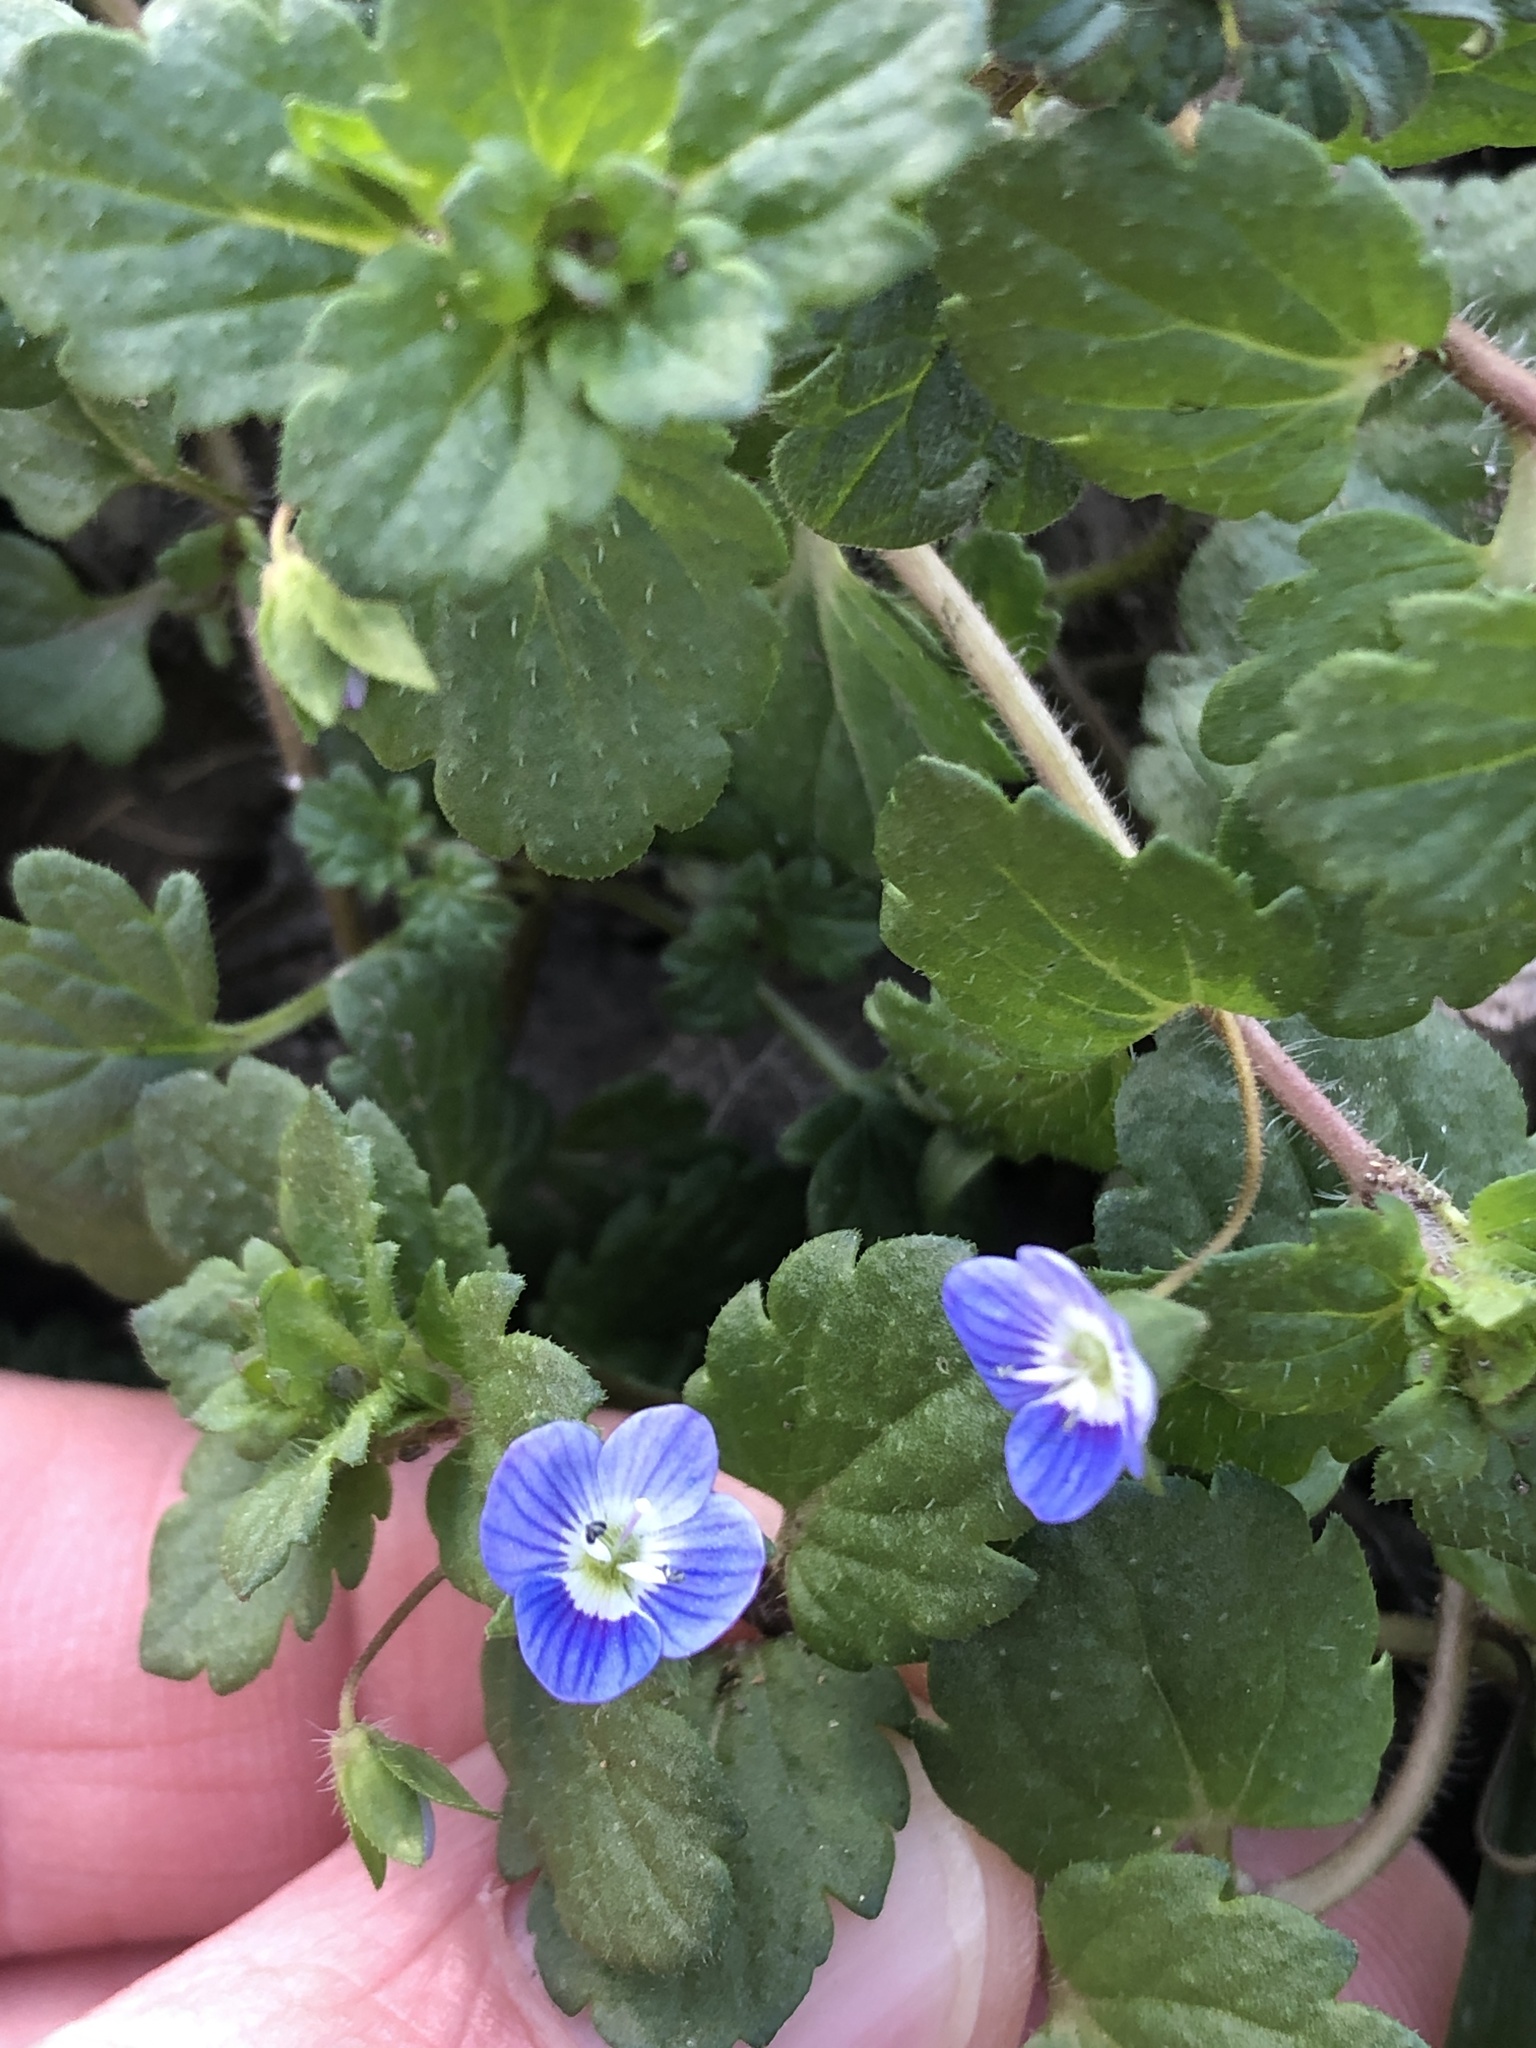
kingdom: Plantae
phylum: Tracheophyta
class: Magnoliopsida
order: Lamiales
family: Plantaginaceae
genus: Veronica
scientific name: Veronica persica
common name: Common field-speedwell
